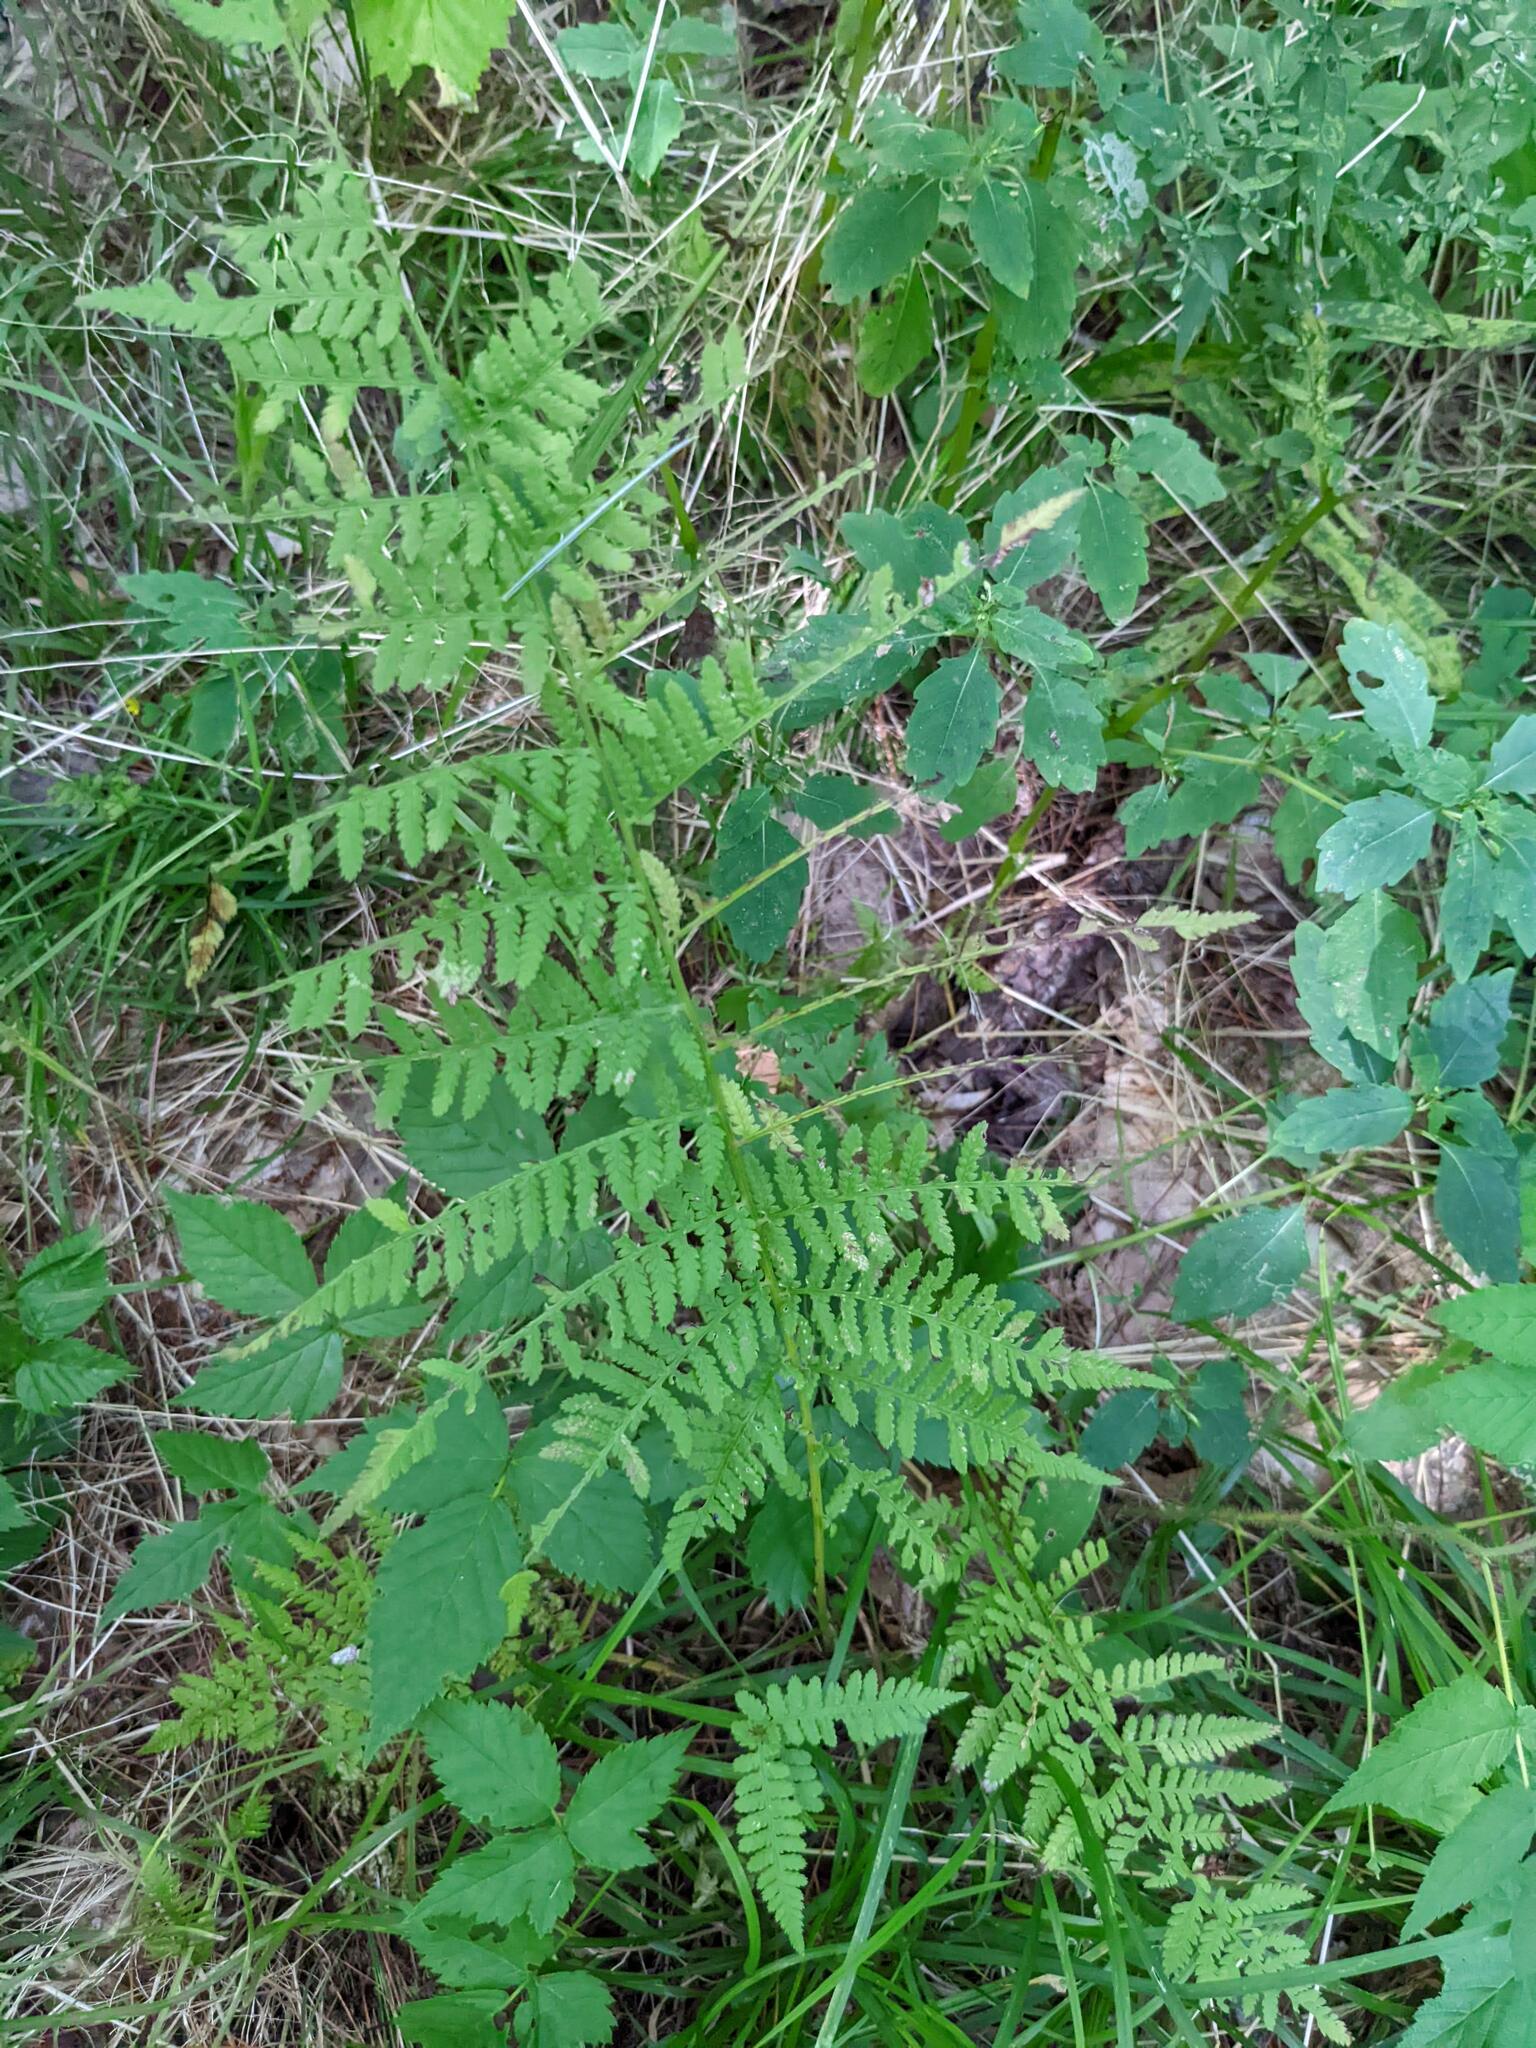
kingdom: Plantae
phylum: Tracheophyta
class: Polypodiopsida
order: Polypodiales
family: Athyriaceae
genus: Athyrium
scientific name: Athyrium angustum
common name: Northern lady fern
